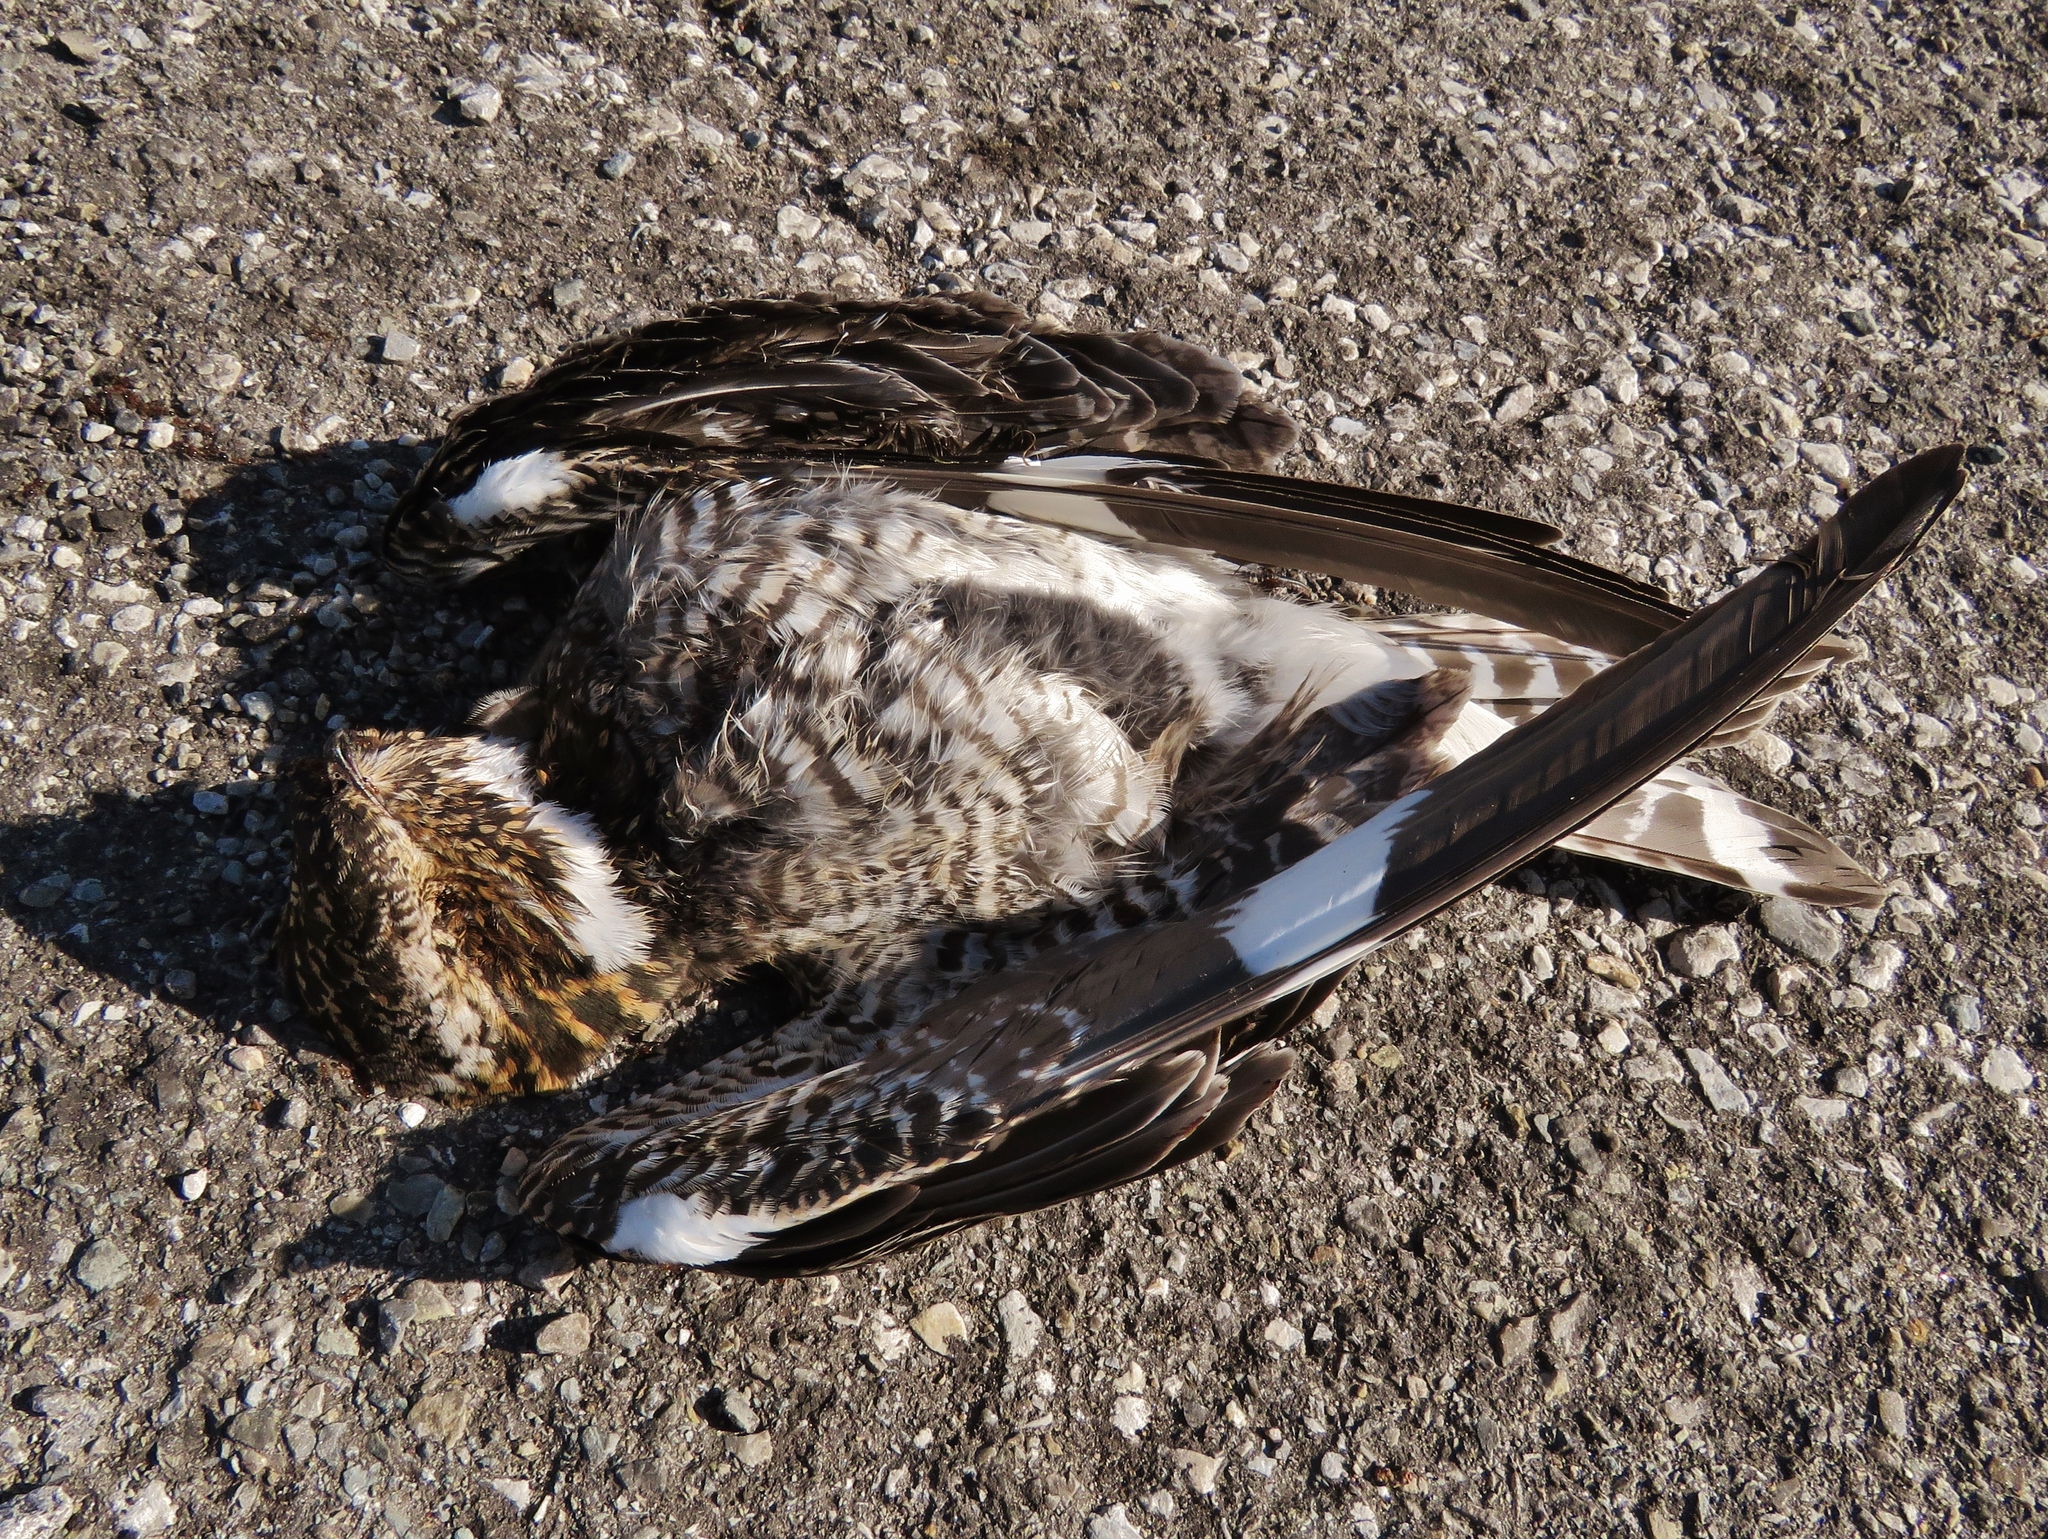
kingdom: Animalia
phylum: Chordata
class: Aves
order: Caprimulgiformes
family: Caprimulgidae
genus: Chordeiles
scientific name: Chordeiles minor
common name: Common nighthawk
